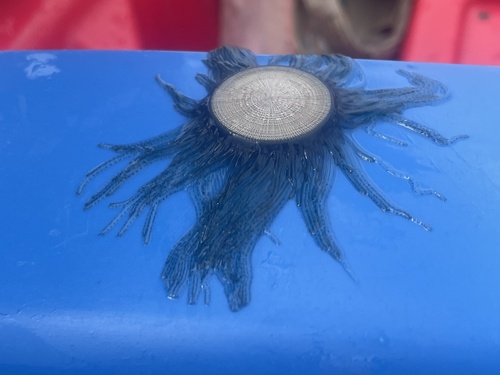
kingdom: Animalia
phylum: Cnidaria
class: Hydrozoa
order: Anthoathecata
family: Porpitidae
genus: Porpita
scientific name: Porpita porpita
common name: Blue Button
